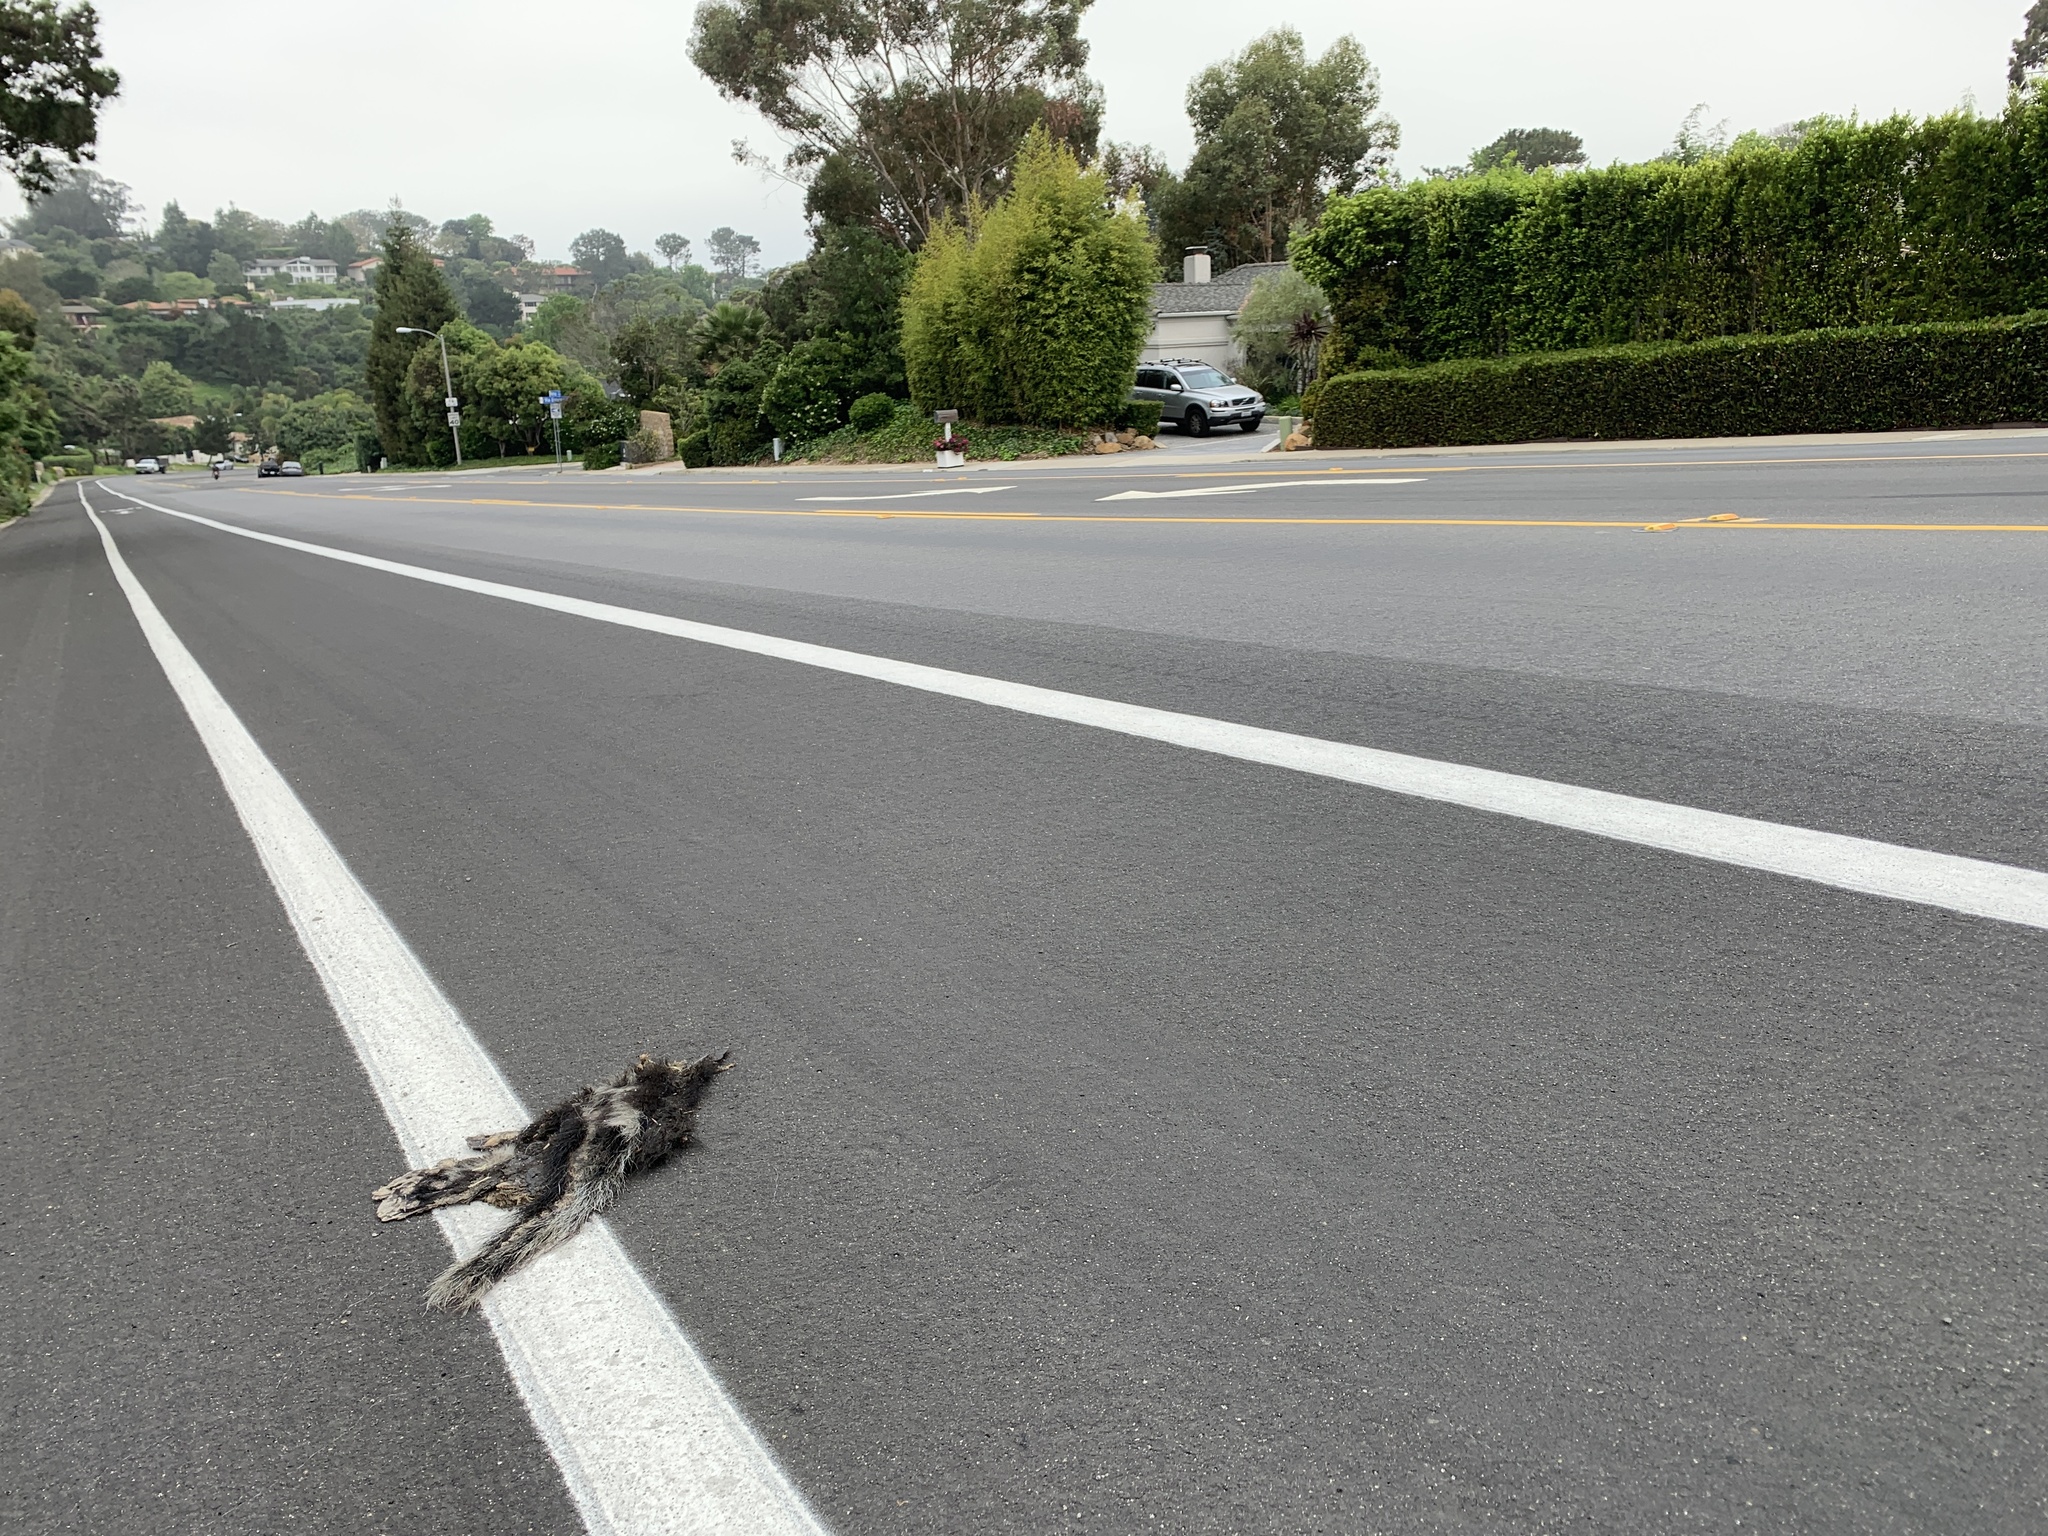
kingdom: Animalia
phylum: Chordata
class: Mammalia
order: Carnivora
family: Mephitidae
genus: Mephitis
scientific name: Mephitis mephitis
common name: Striped skunk
